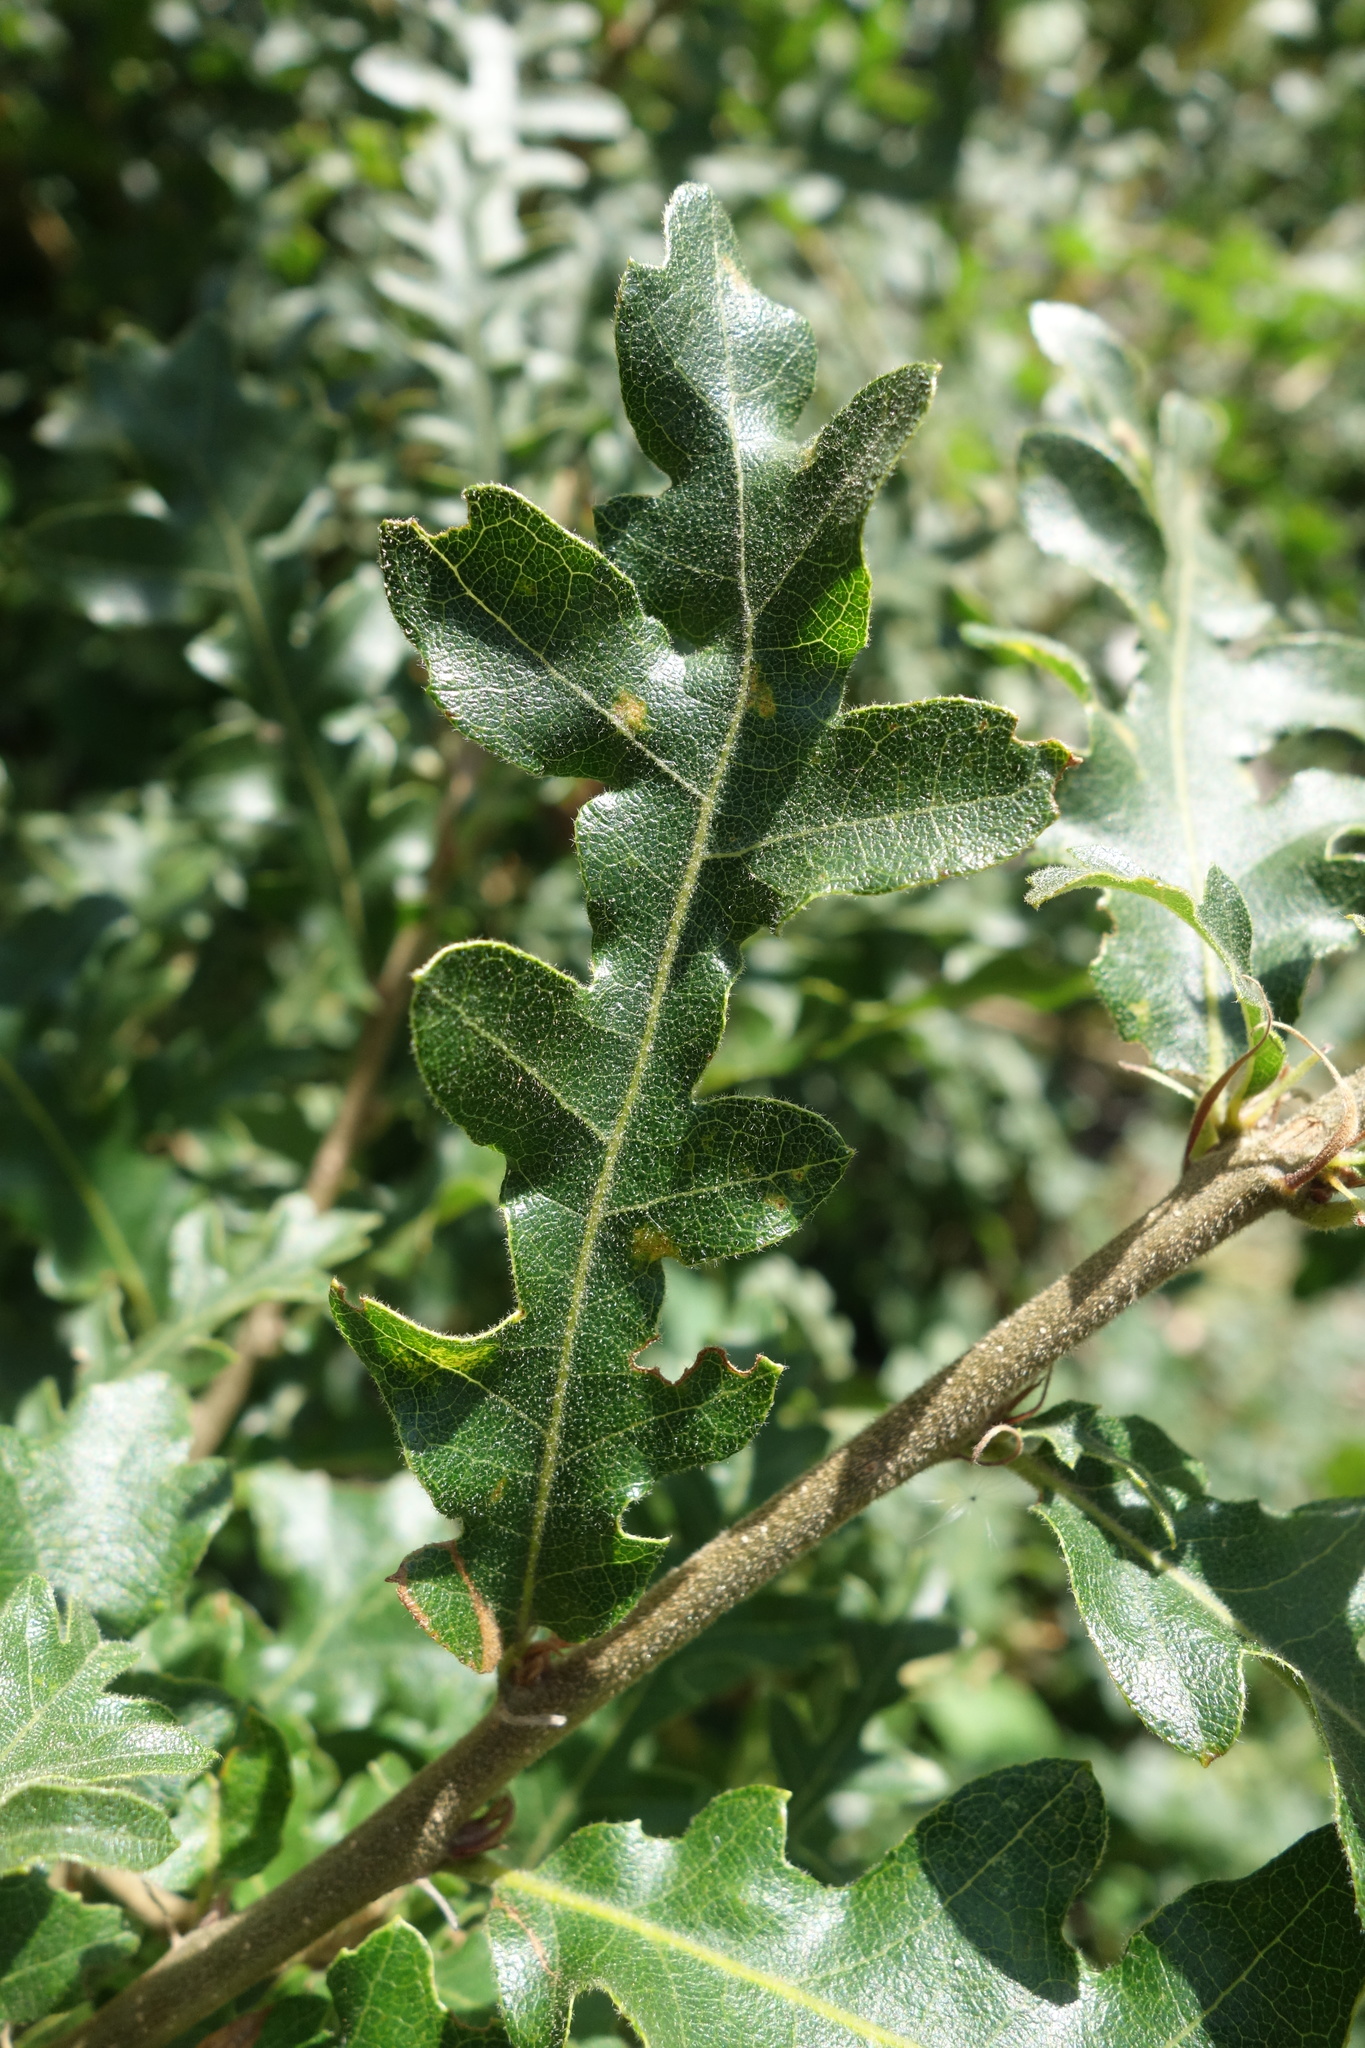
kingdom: Plantae
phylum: Tracheophyta
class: Magnoliopsida
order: Fagales
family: Fagaceae
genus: Quercus
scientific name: Quercus cerris
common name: Turkey oak
